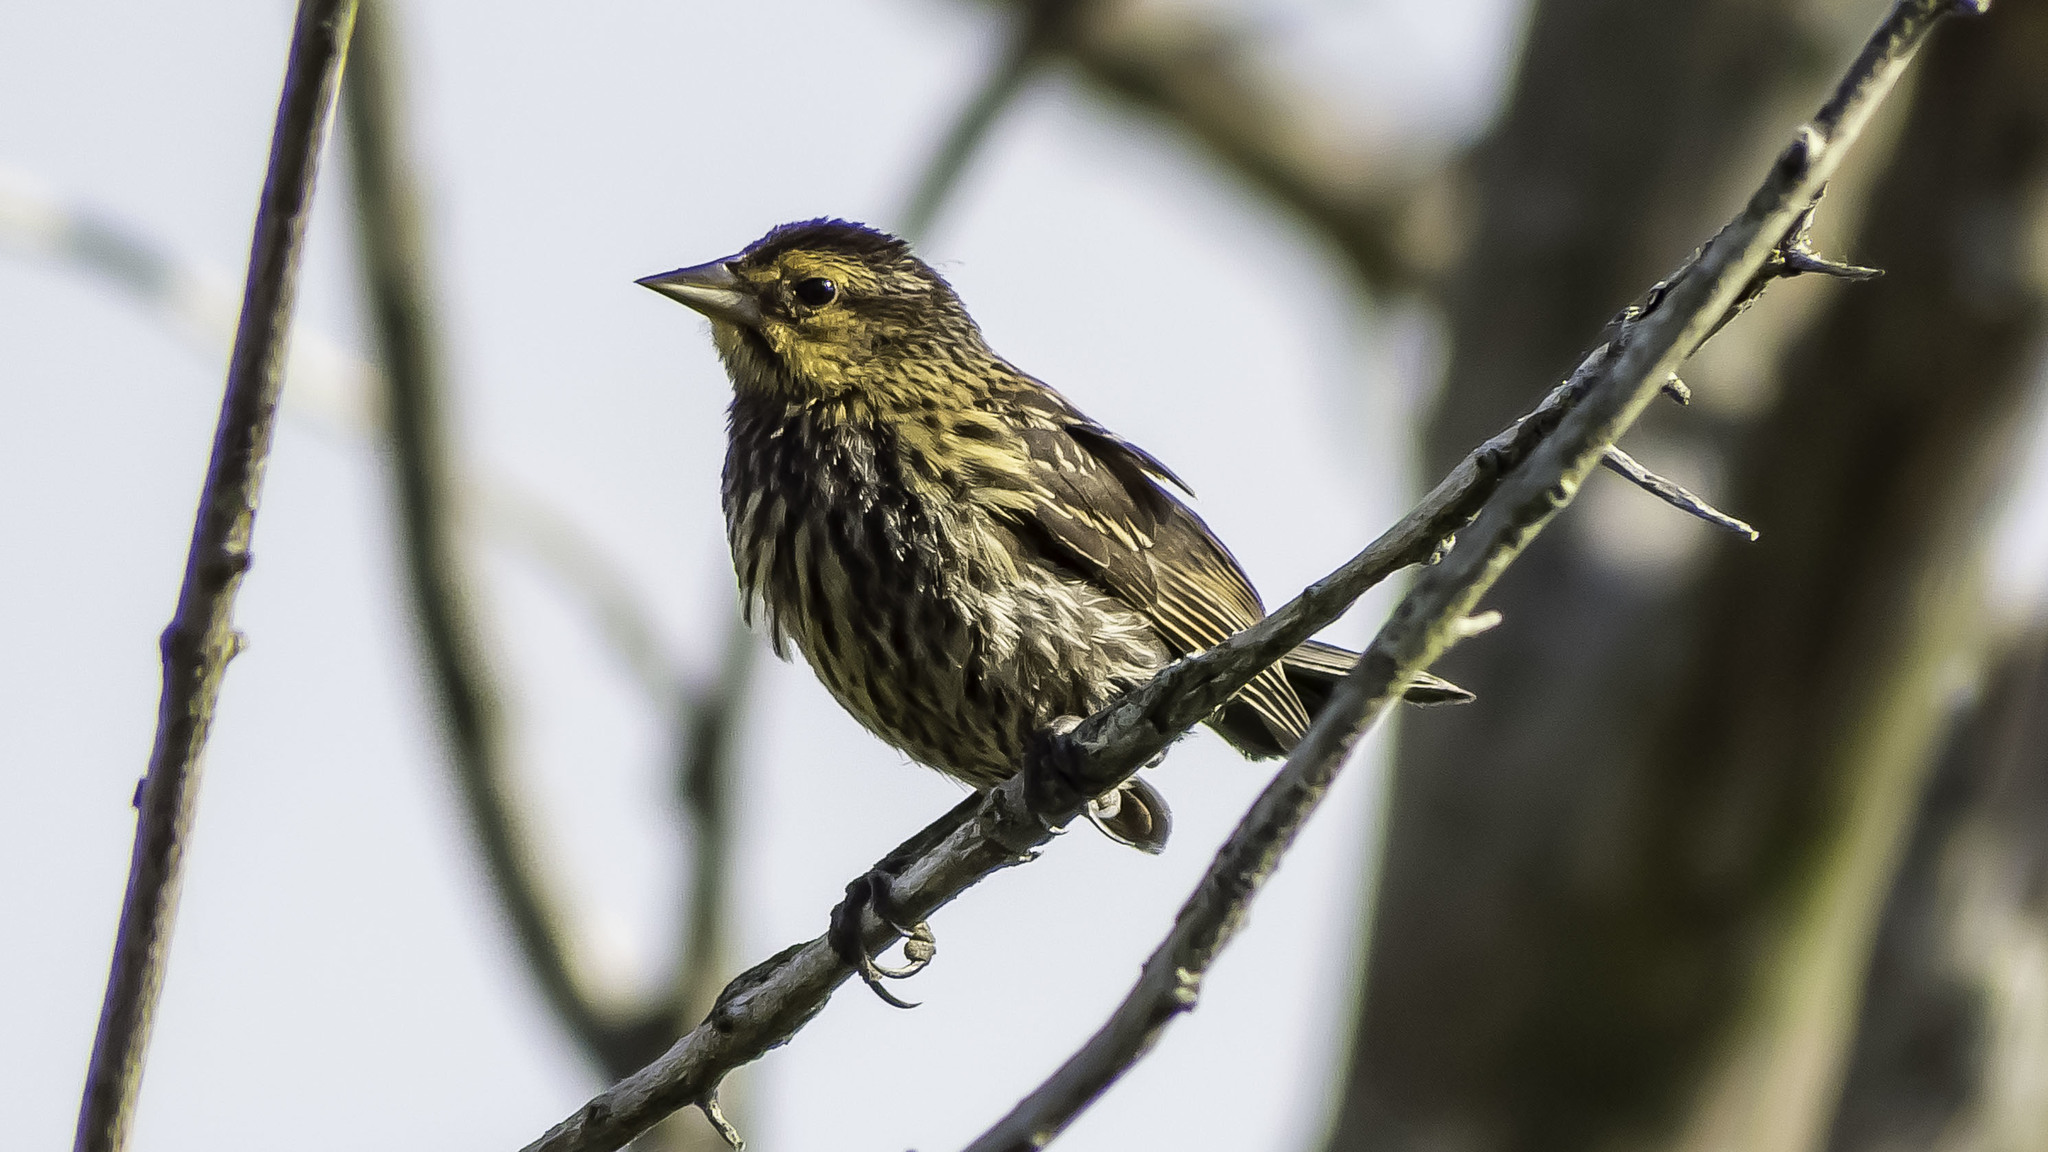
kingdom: Animalia
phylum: Chordata
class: Aves
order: Passeriformes
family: Icteridae
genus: Agelaius
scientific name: Agelaius phoeniceus
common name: Red-winged blackbird
